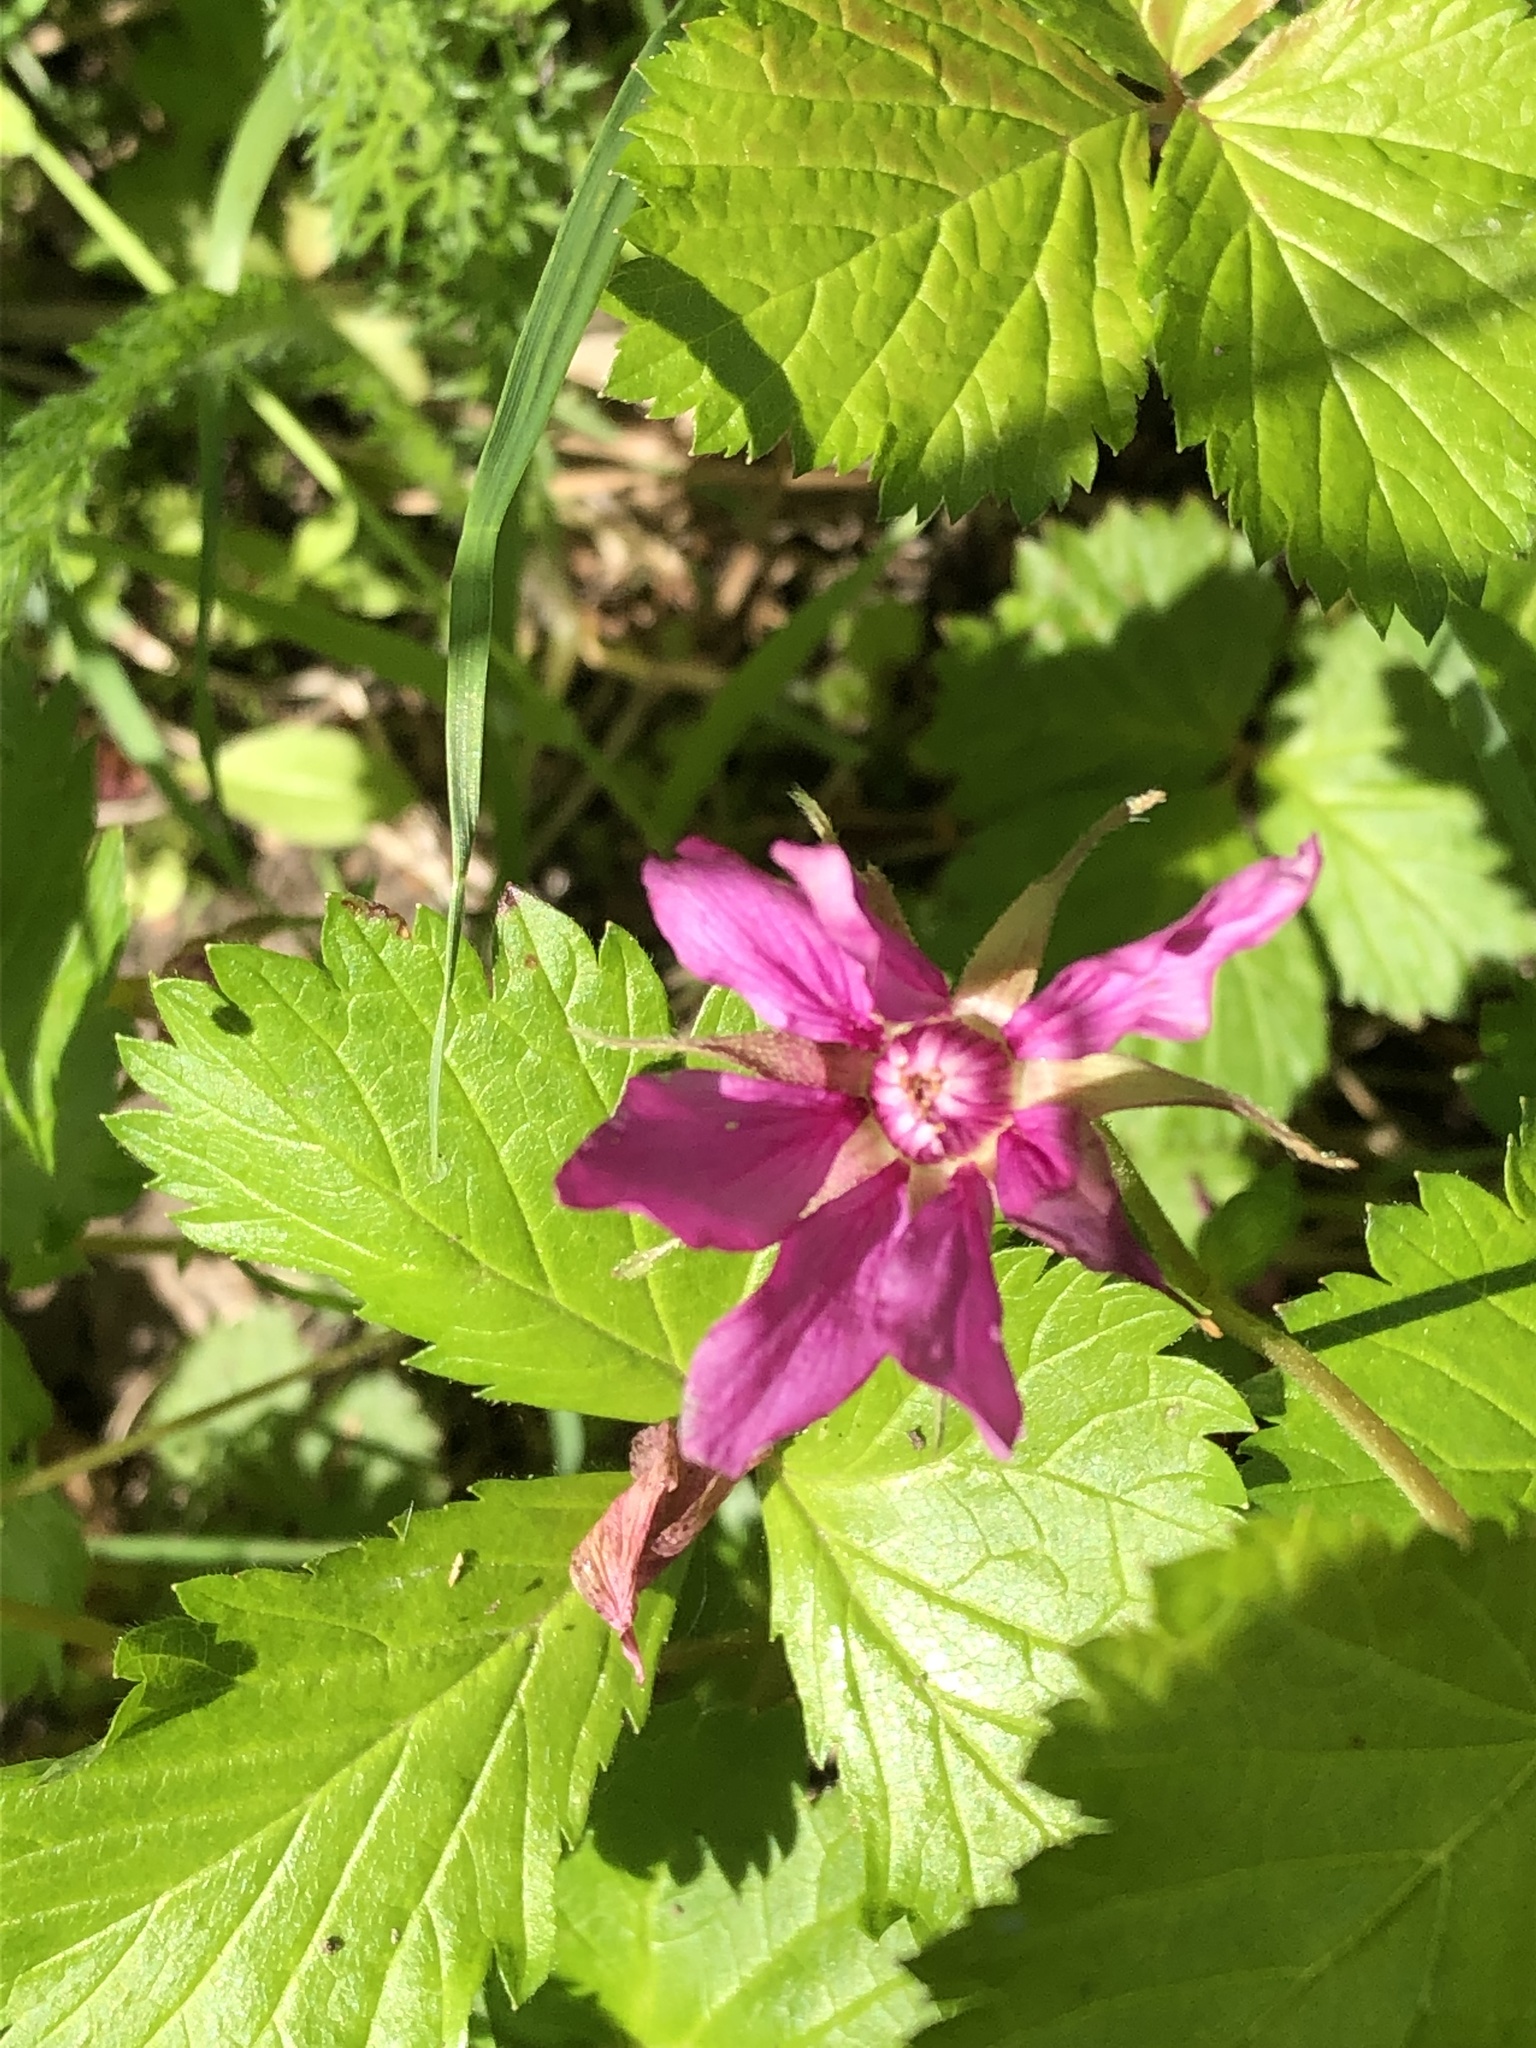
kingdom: Plantae
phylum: Tracheophyta
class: Magnoliopsida
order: Rosales
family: Rosaceae
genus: Rubus
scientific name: Rubus arcticus
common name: Arctic bramble
